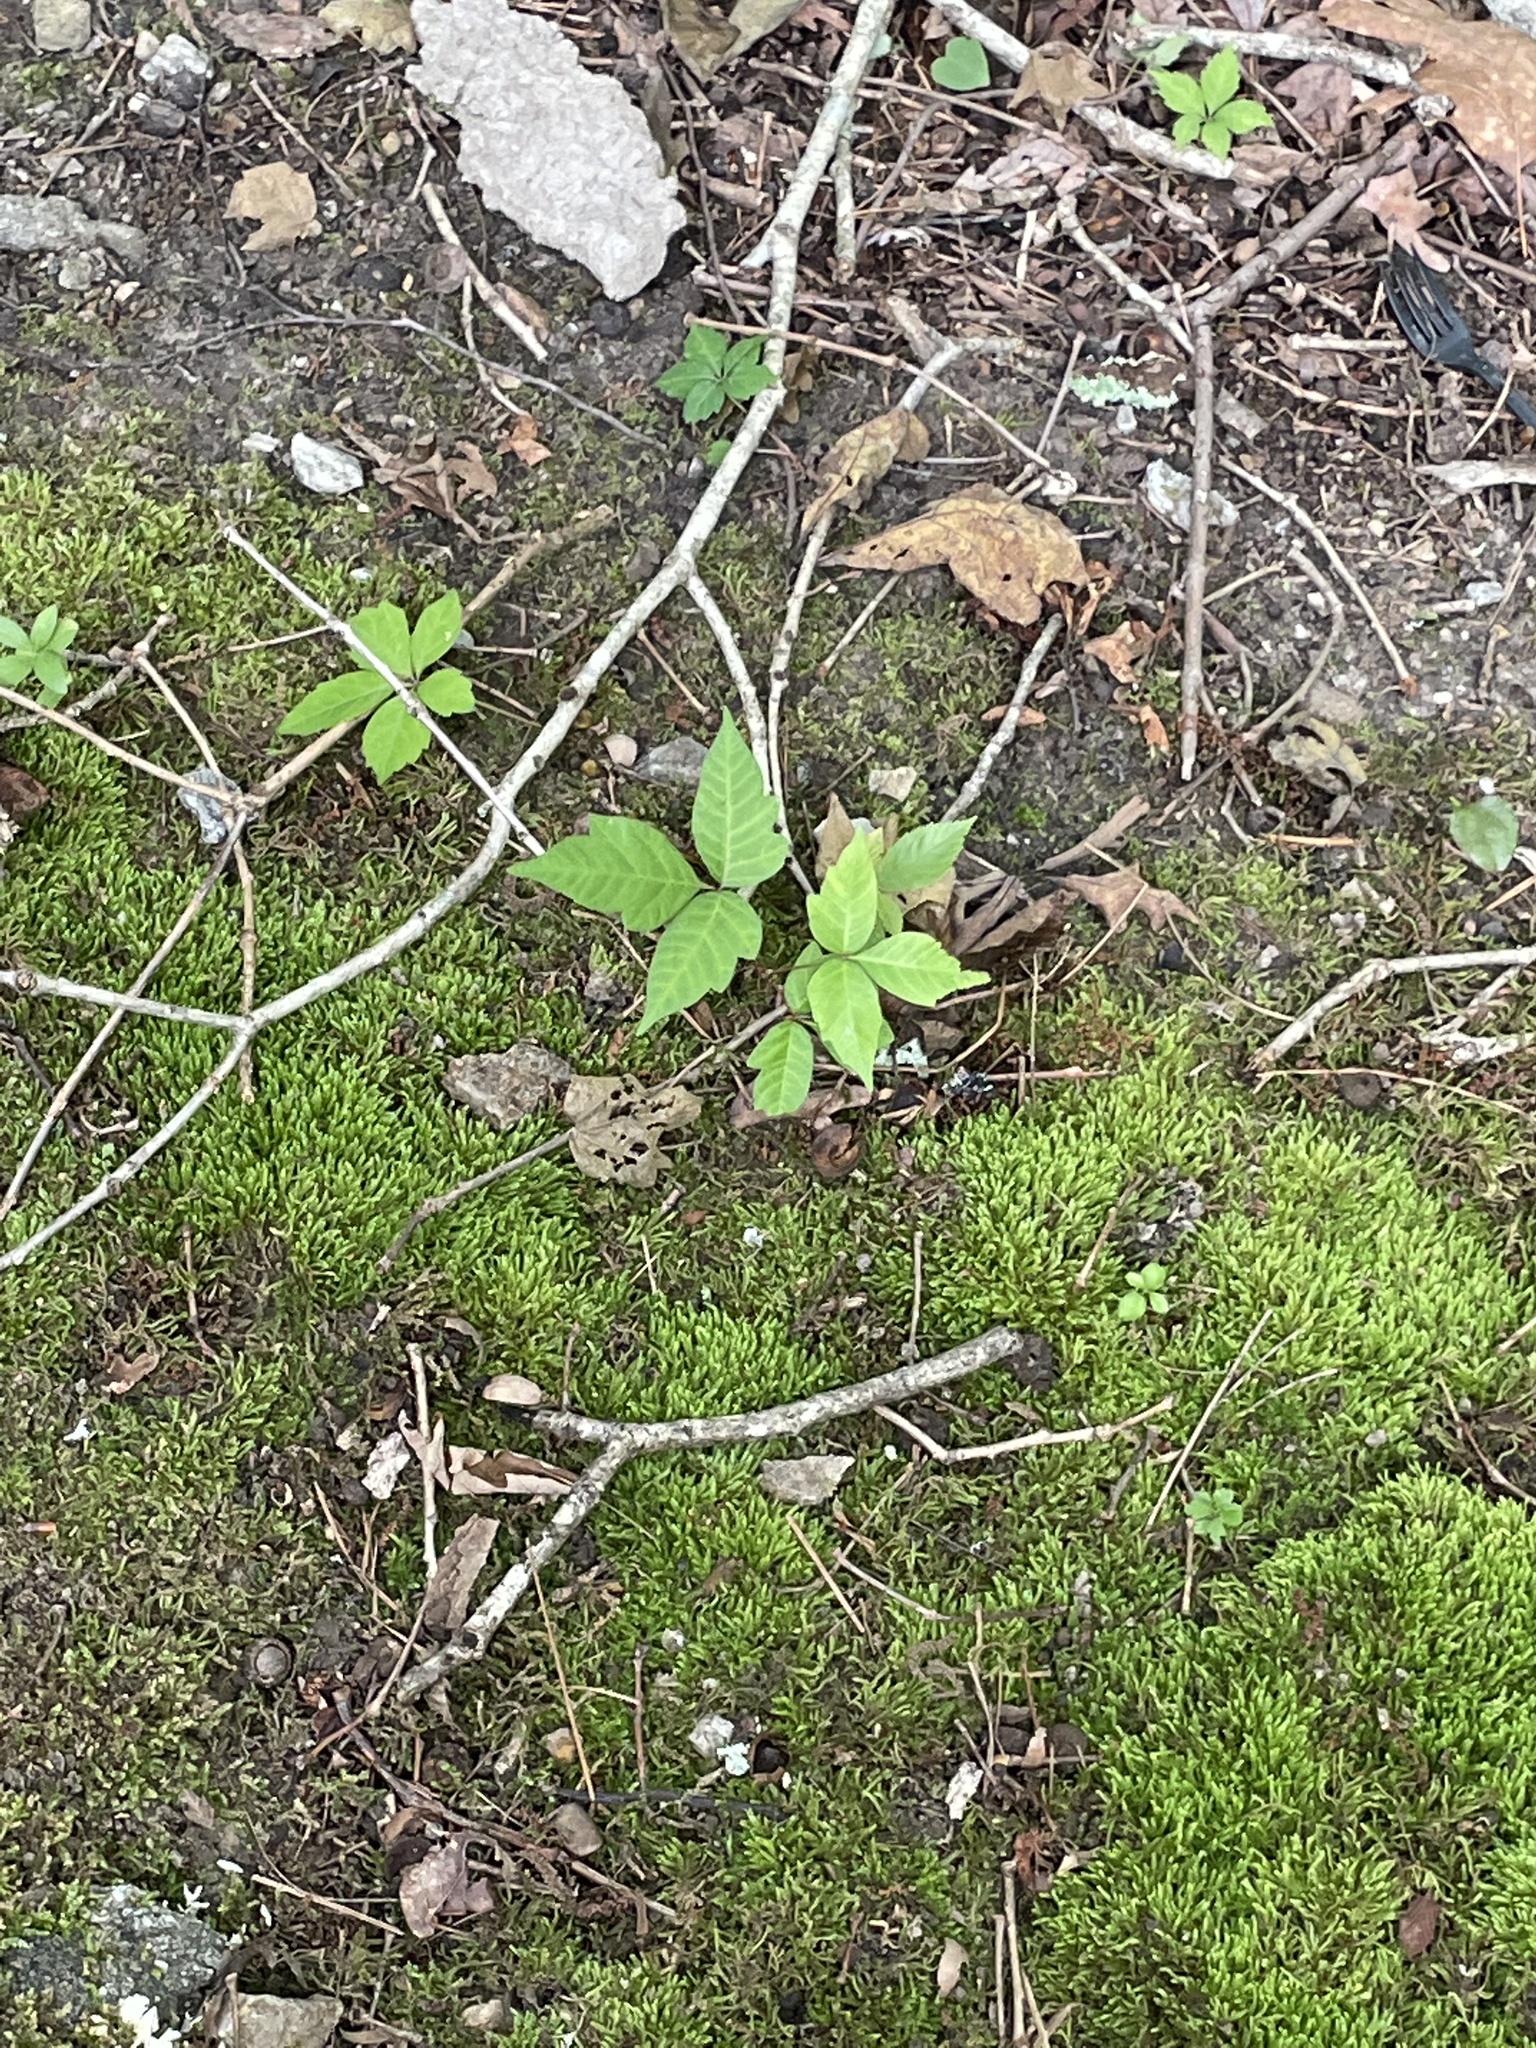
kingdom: Plantae
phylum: Tracheophyta
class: Magnoliopsida
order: Sapindales
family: Anacardiaceae
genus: Toxicodendron
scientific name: Toxicodendron radicans
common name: Poison ivy
